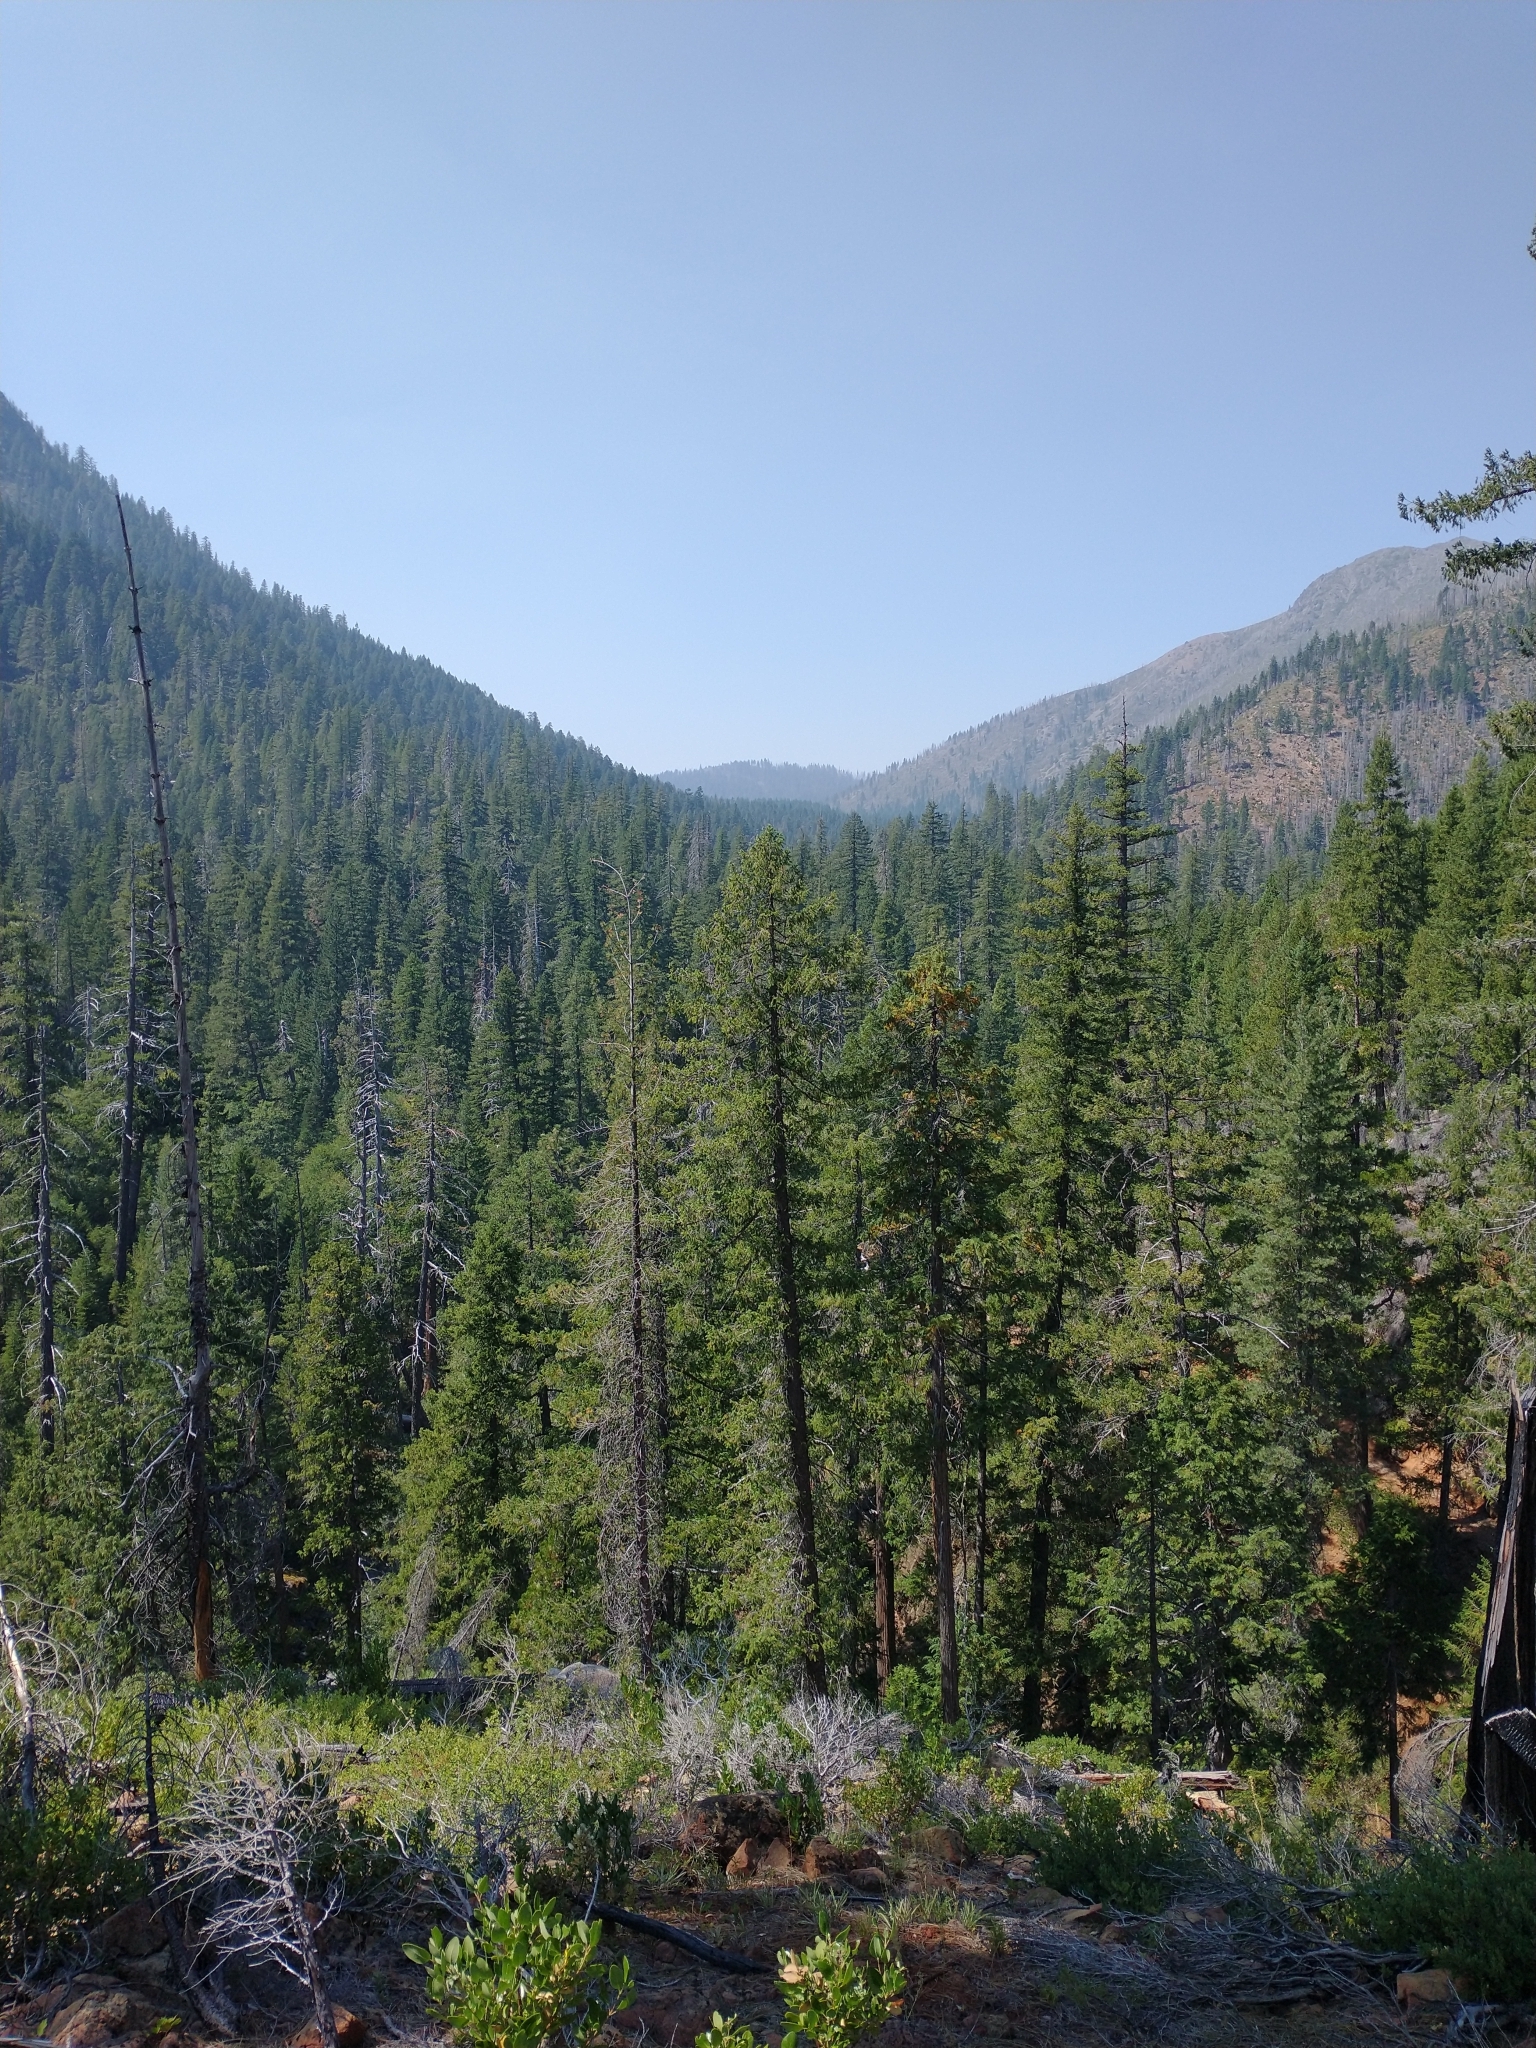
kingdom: Plantae
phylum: Tracheophyta
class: Pinopsida
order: Pinales
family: Pinaceae
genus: Pseudotsuga
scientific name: Pseudotsuga menziesii
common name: Douglas fir
